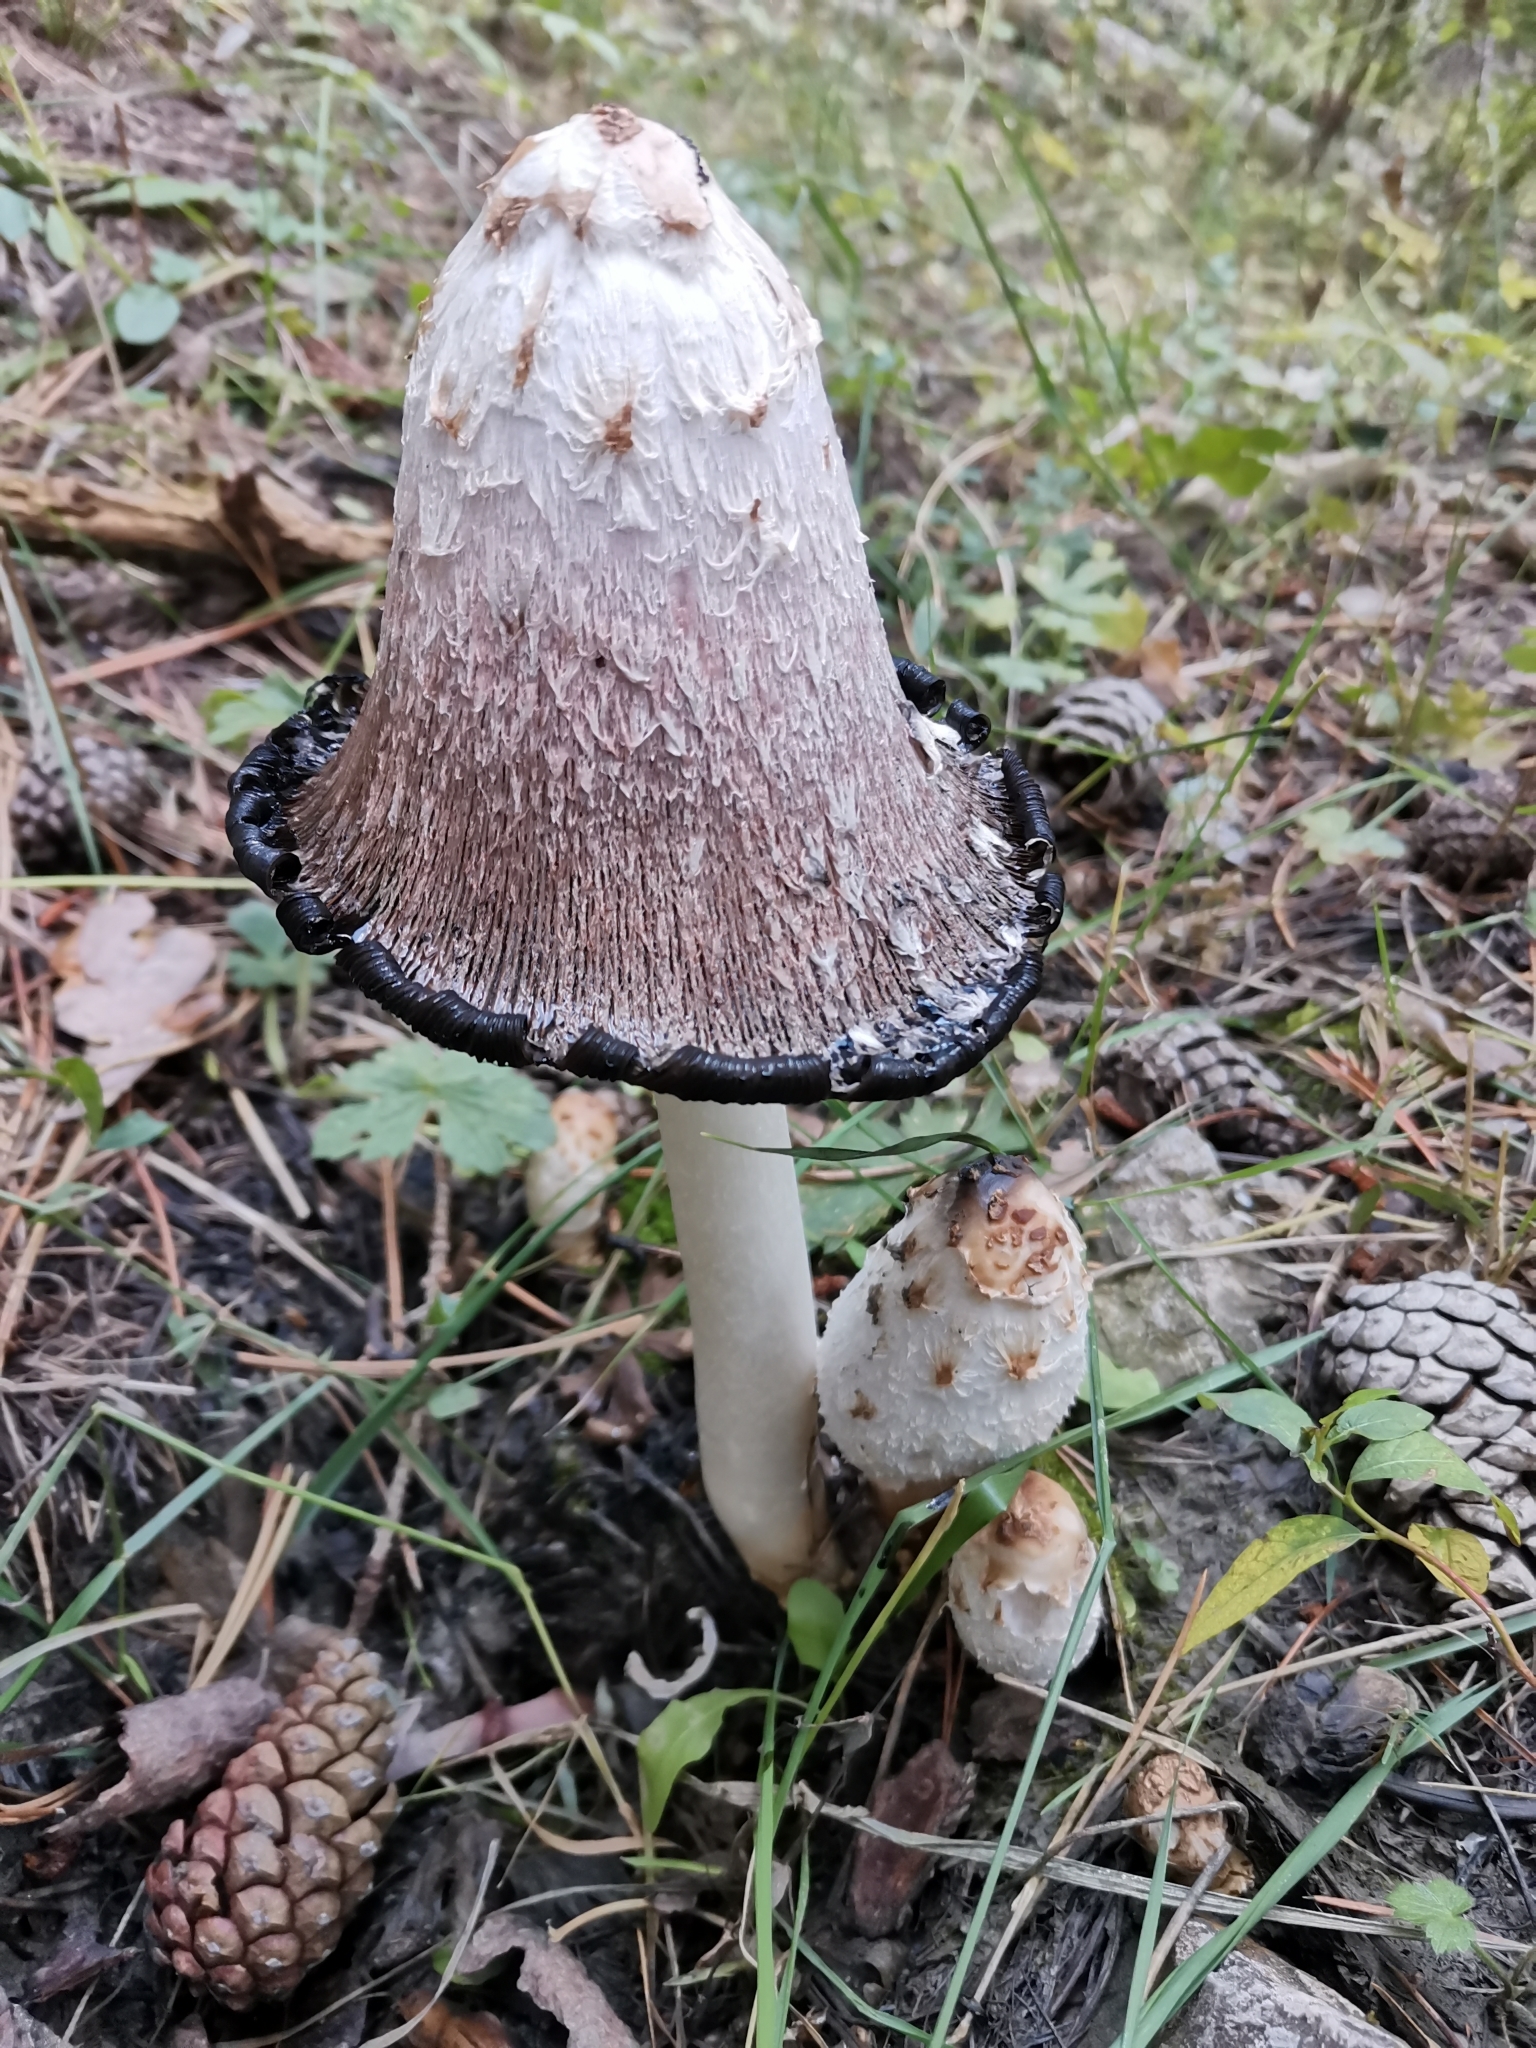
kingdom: Fungi
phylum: Basidiomycota
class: Agaricomycetes
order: Agaricales
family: Agaricaceae
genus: Coprinus
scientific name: Coprinus comatus
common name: Lawyer's wig
